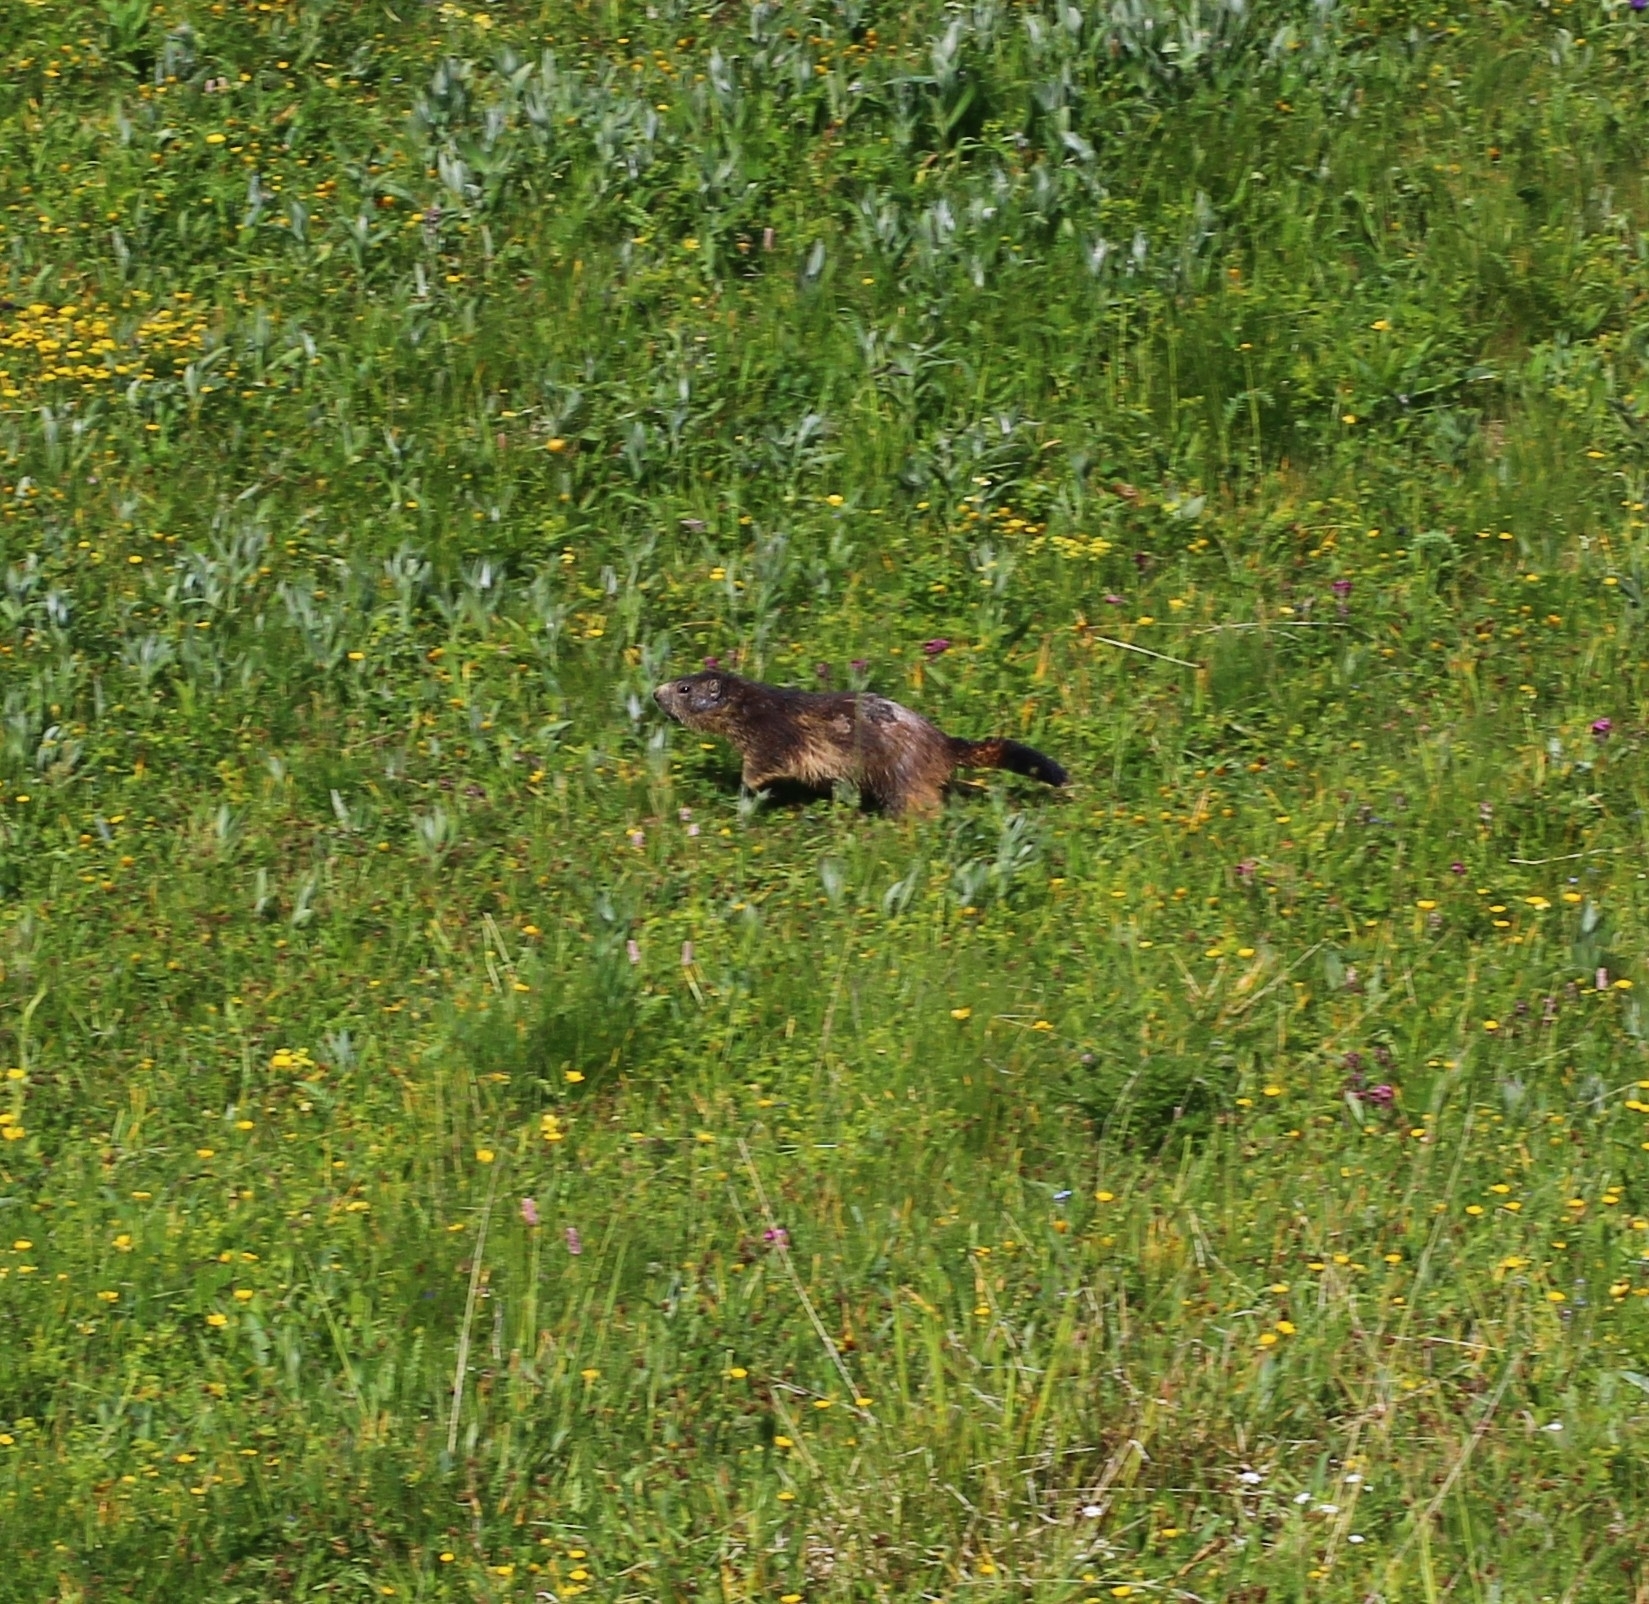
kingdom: Animalia
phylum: Chordata
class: Mammalia
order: Rodentia
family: Sciuridae
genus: Marmota
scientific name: Marmota marmota
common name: Alpine marmot
